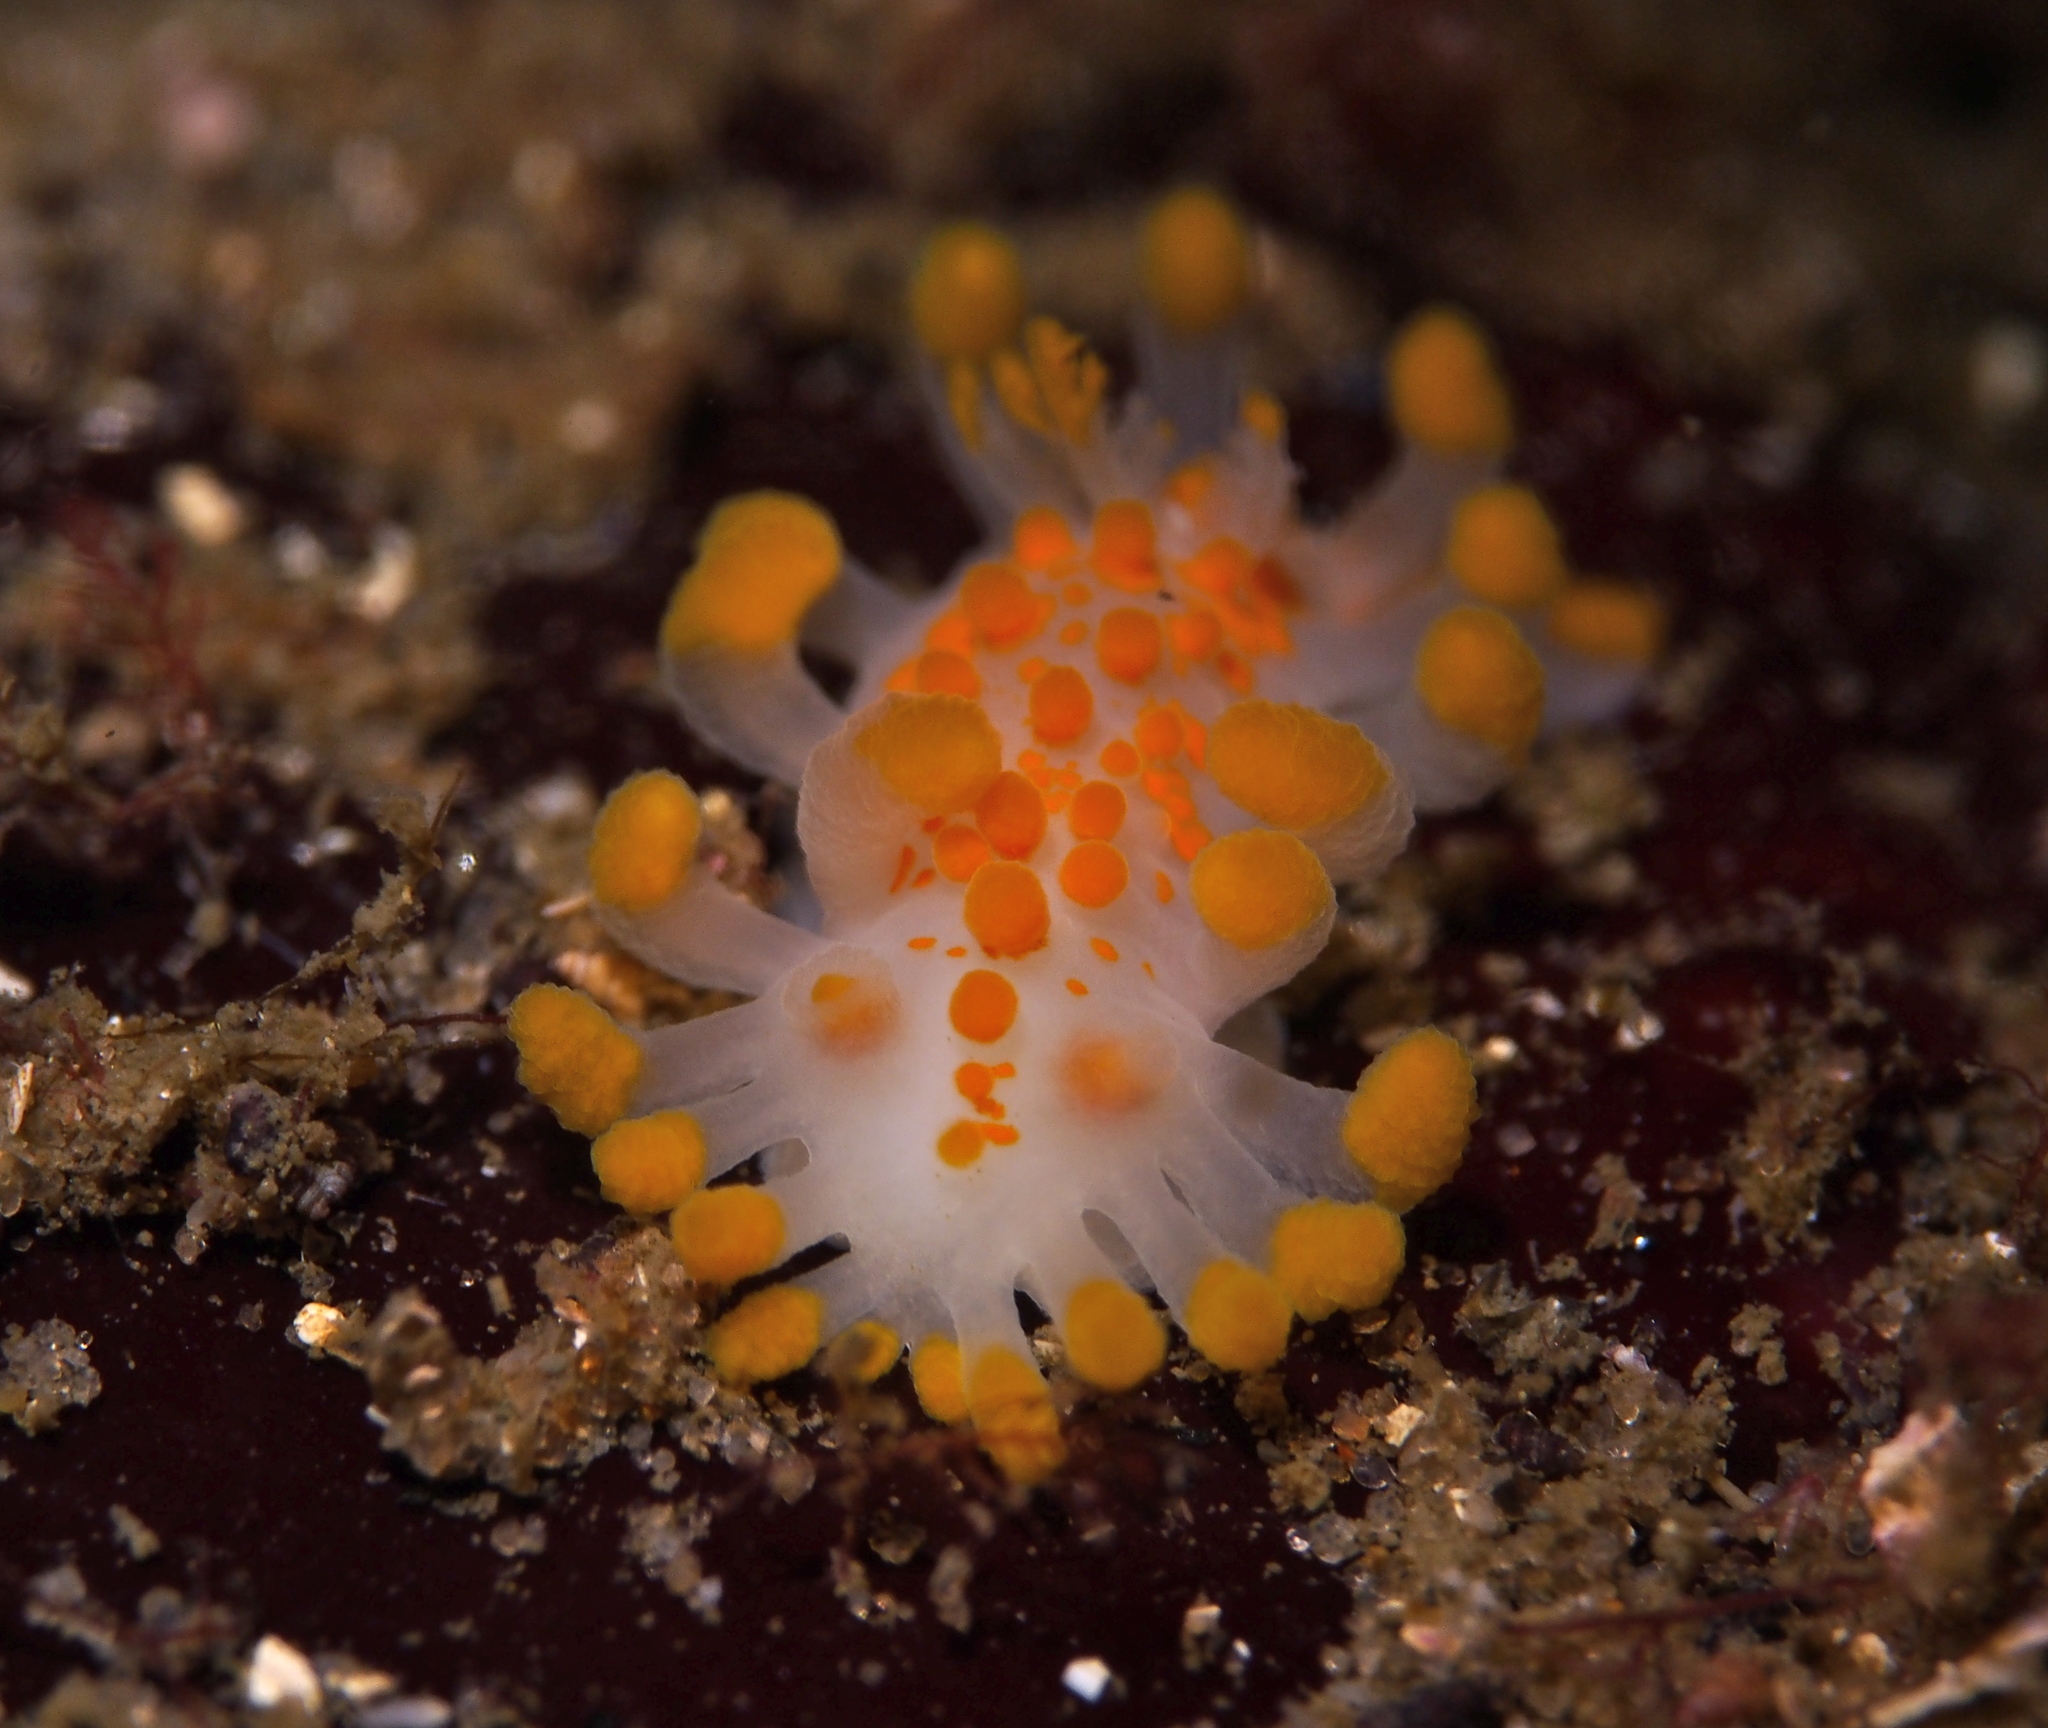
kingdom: Animalia
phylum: Mollusca
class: Gastropoda
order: Nudibranchia
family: Polyceridae
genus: Limacia
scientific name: Limacia clavigera
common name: Orange-clubbed sea slug
